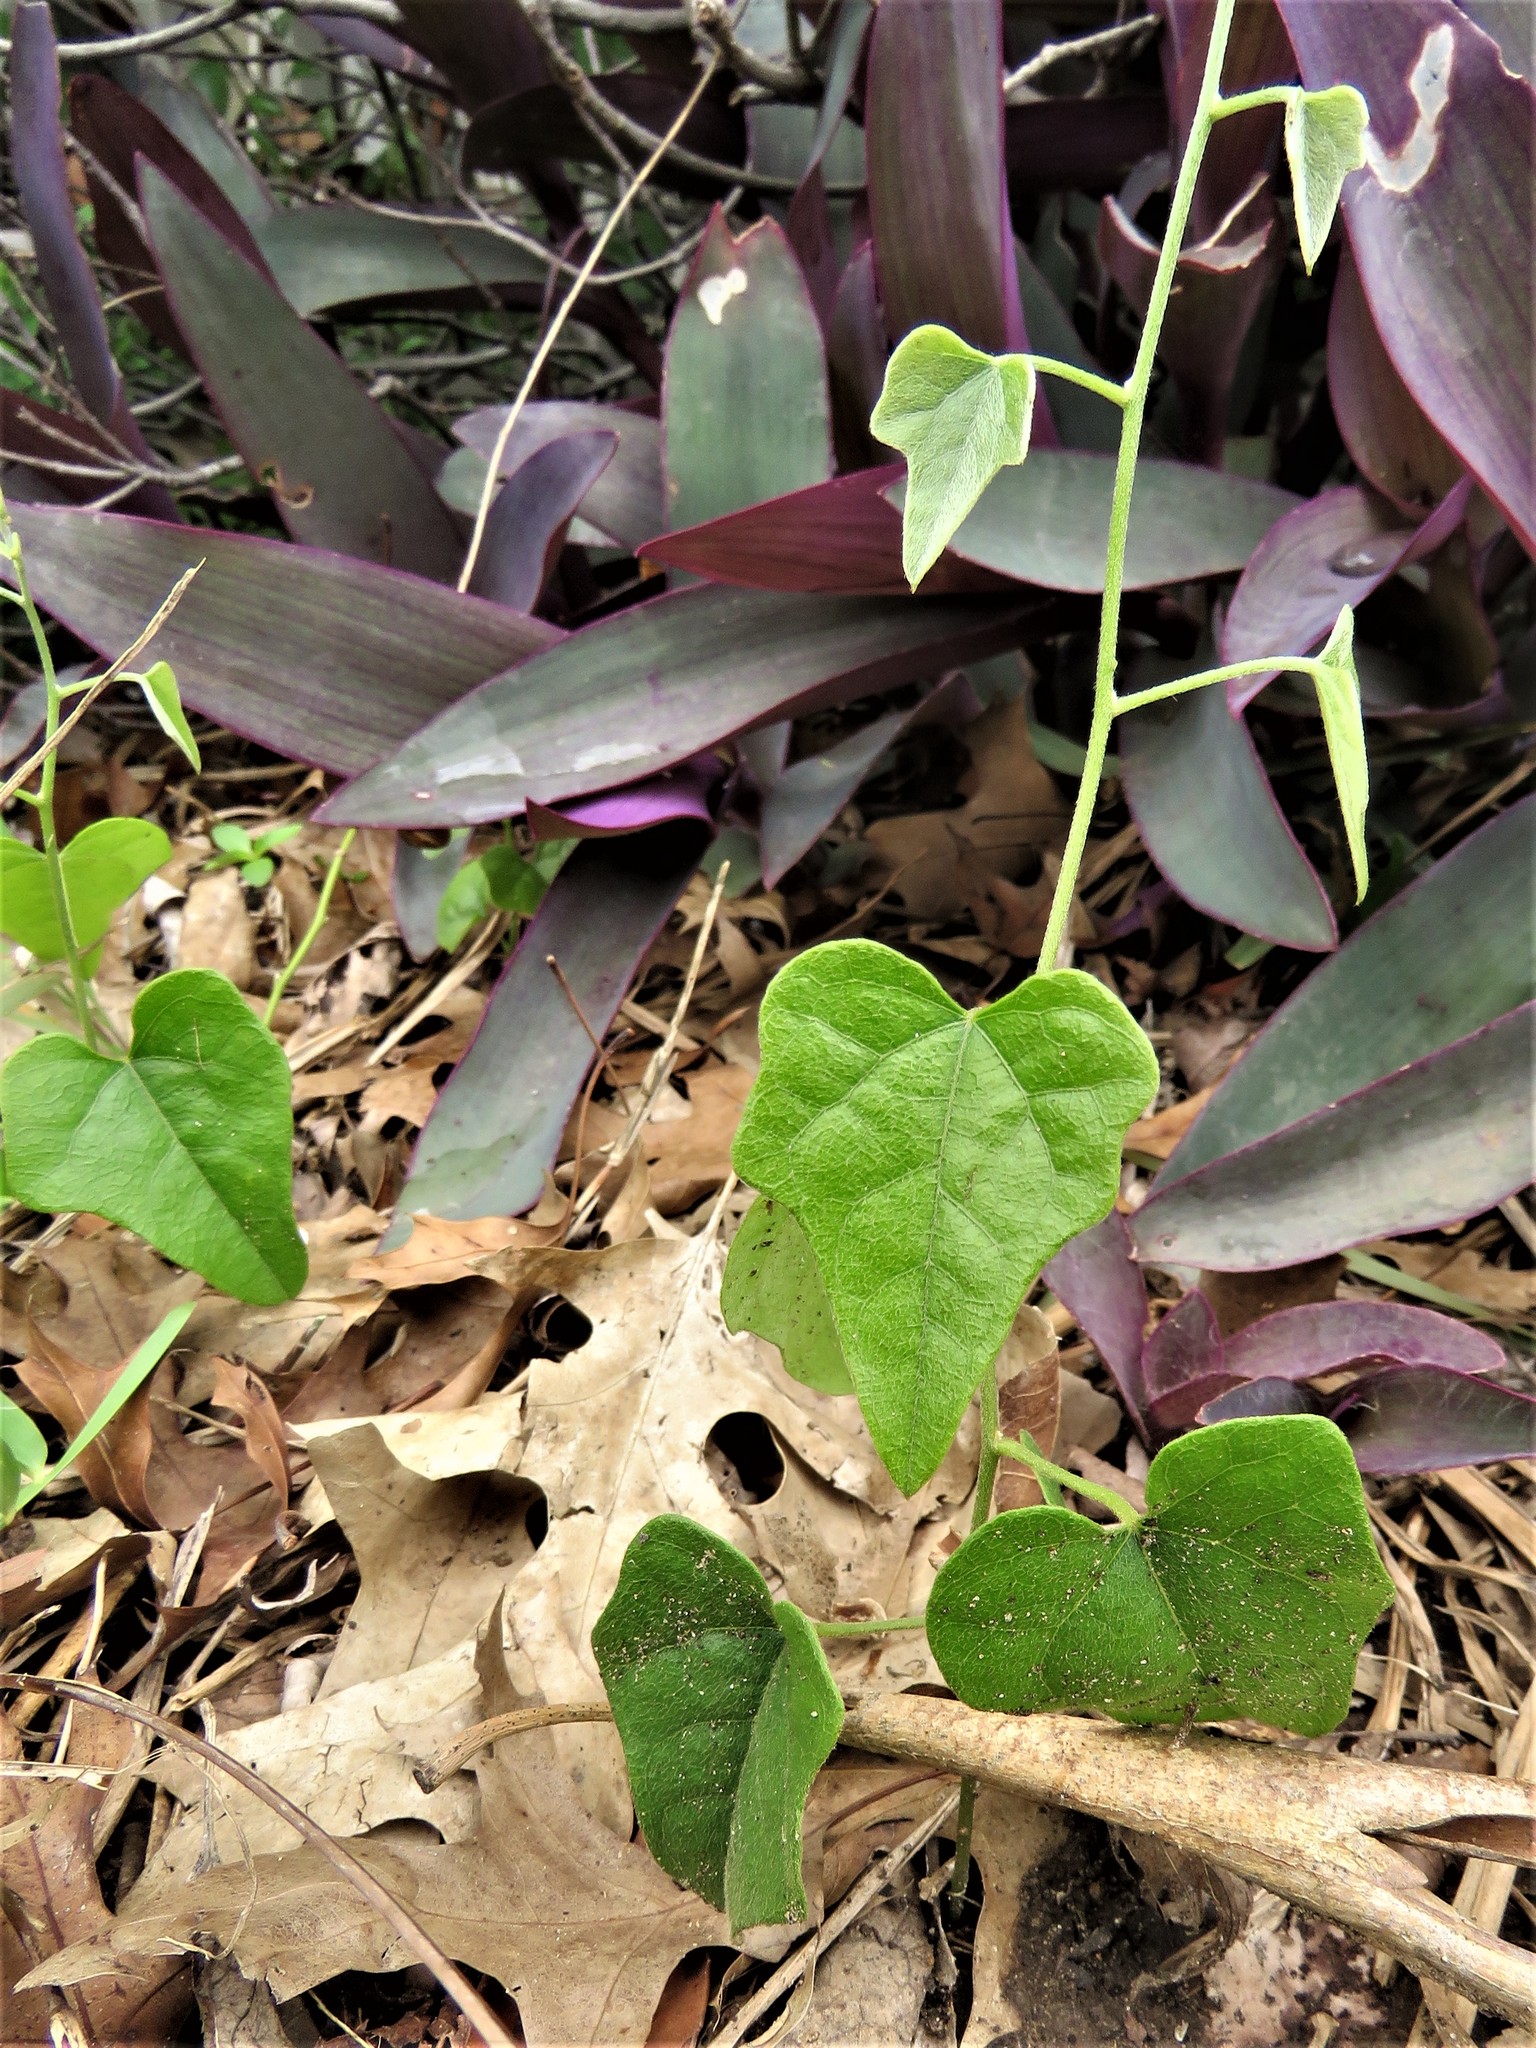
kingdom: Plantae
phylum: Tracheophyta
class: Magnoliopsida
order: Ranunculales
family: Menispermaceae
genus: Cocculus
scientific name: Cocculus carolinus
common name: Carolina moonseed
